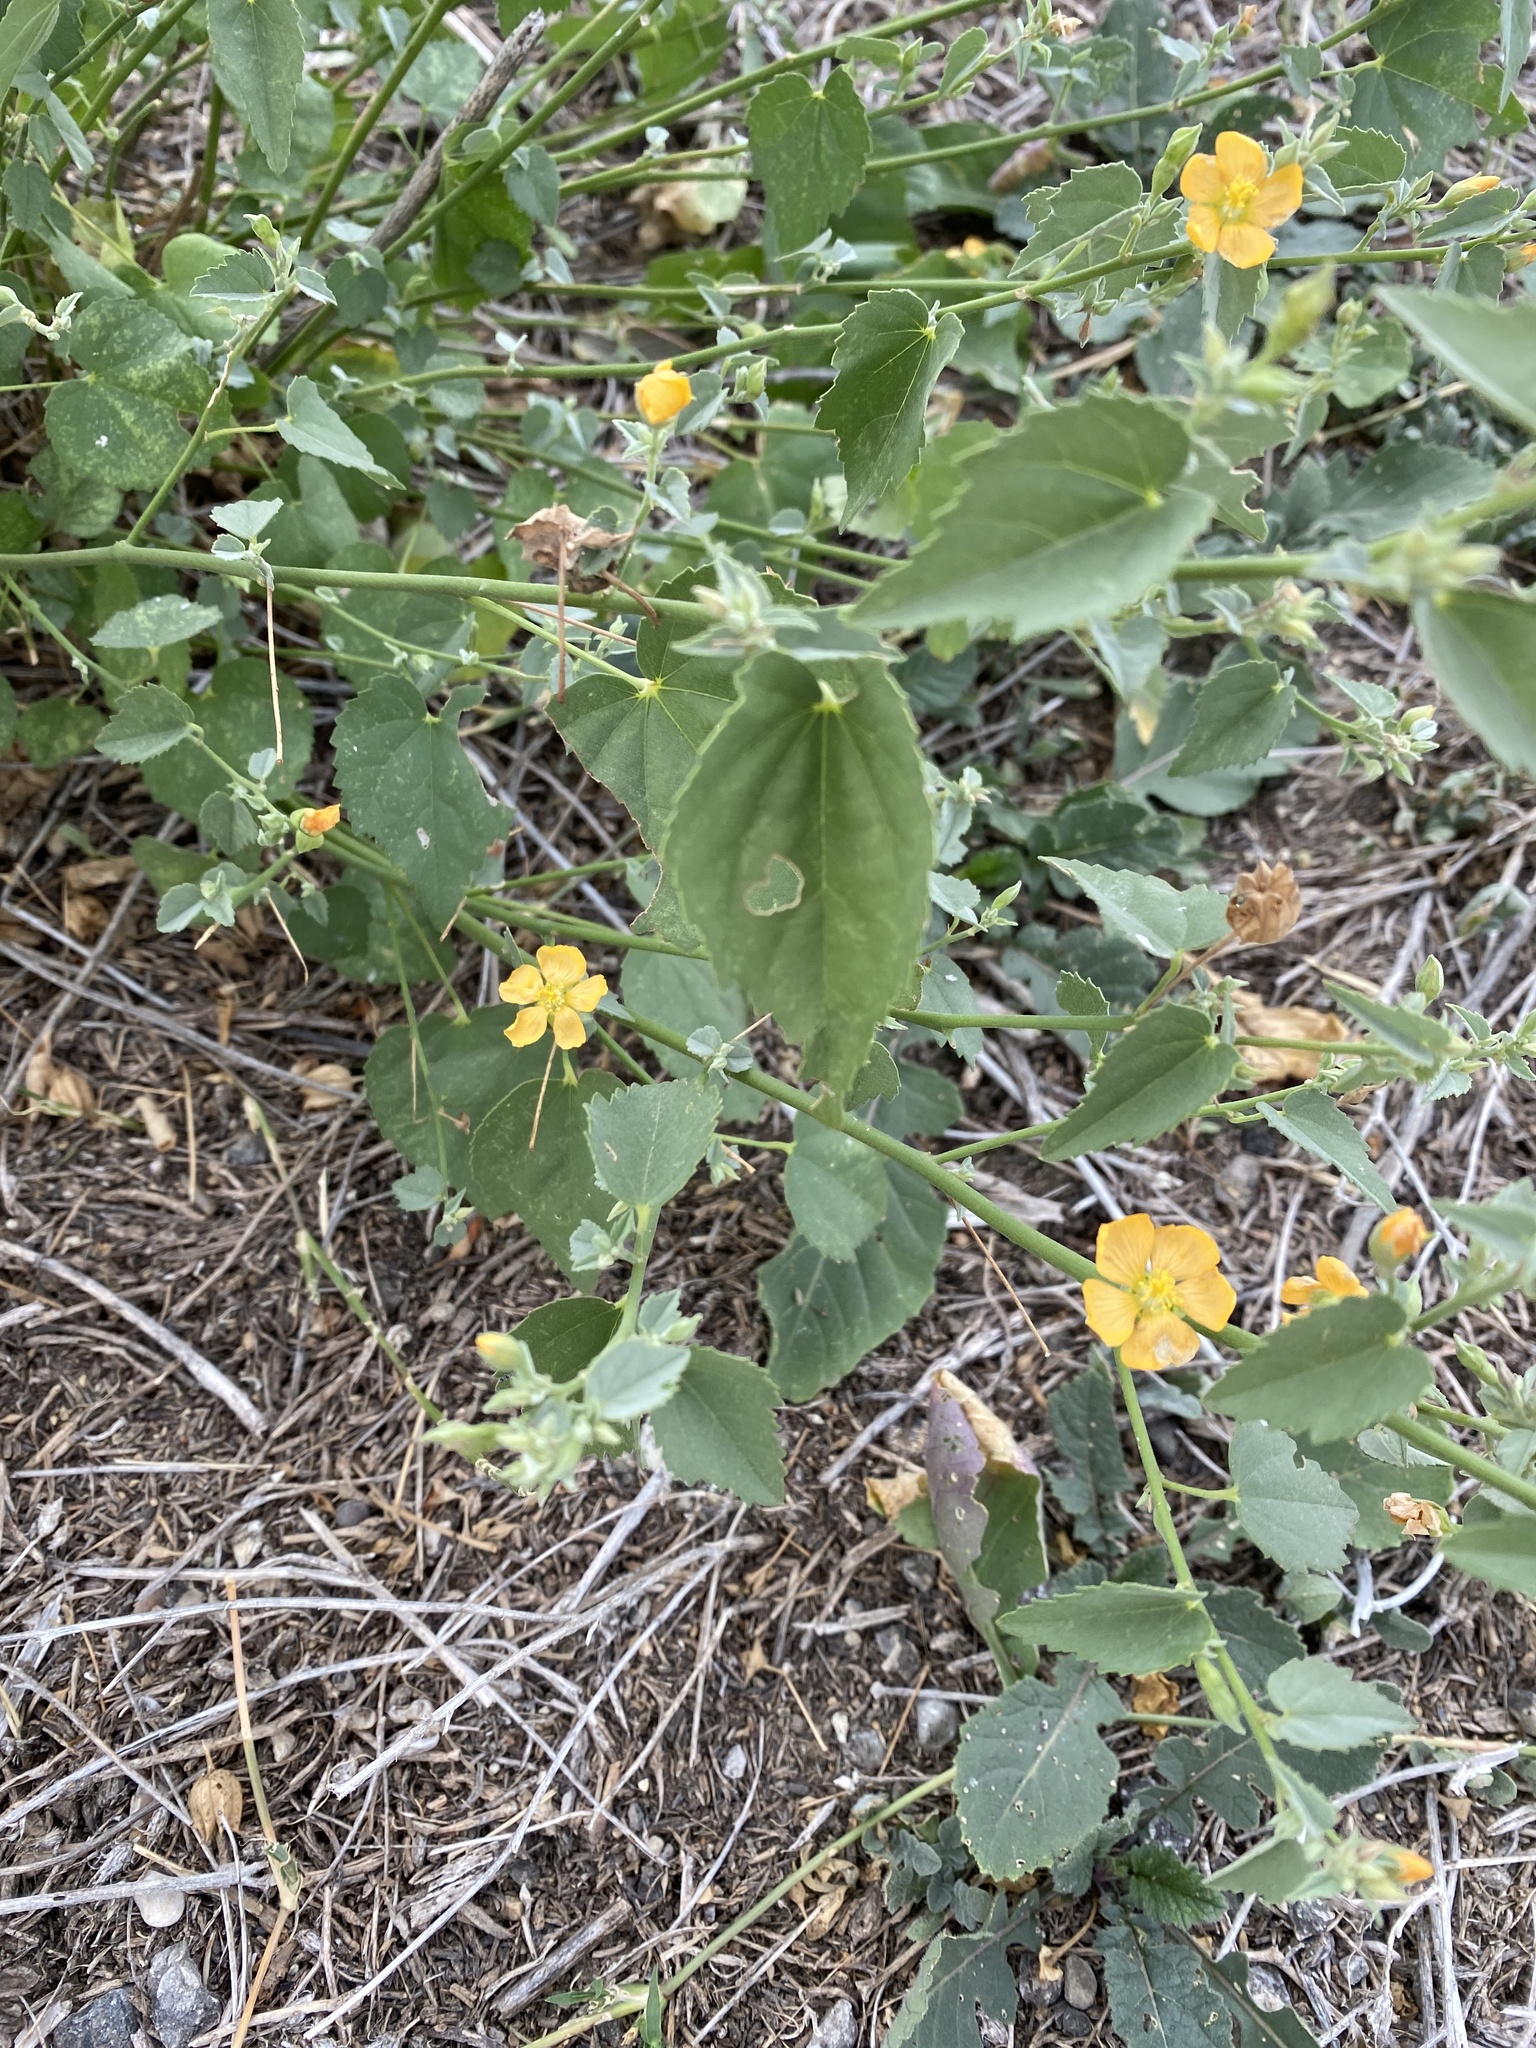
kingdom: Plantae
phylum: Tracheophyta
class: Magnoliopsida
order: Malvales
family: Malvaceae
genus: Abutilon
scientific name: Abutilon fruticosum
